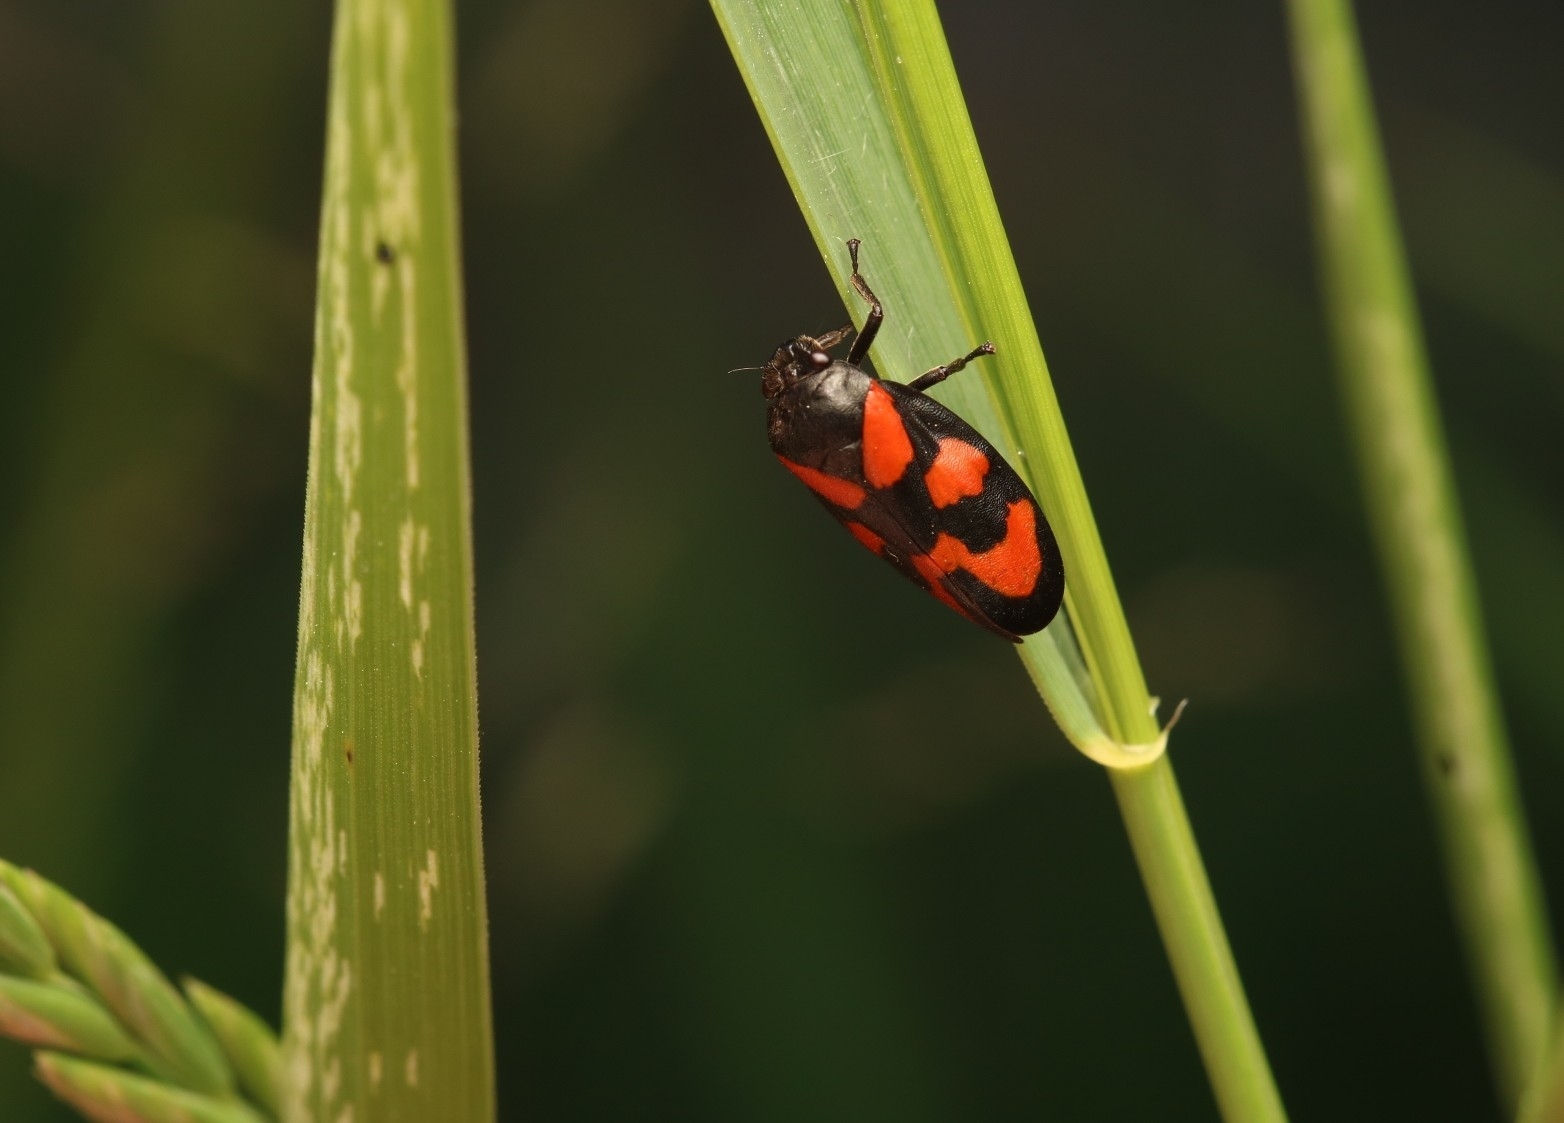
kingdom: Animalia
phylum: Arthropoda
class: Insecta
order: Hemiptera
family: Cercopidae
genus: Cercopis
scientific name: Cercopis vulnerata
